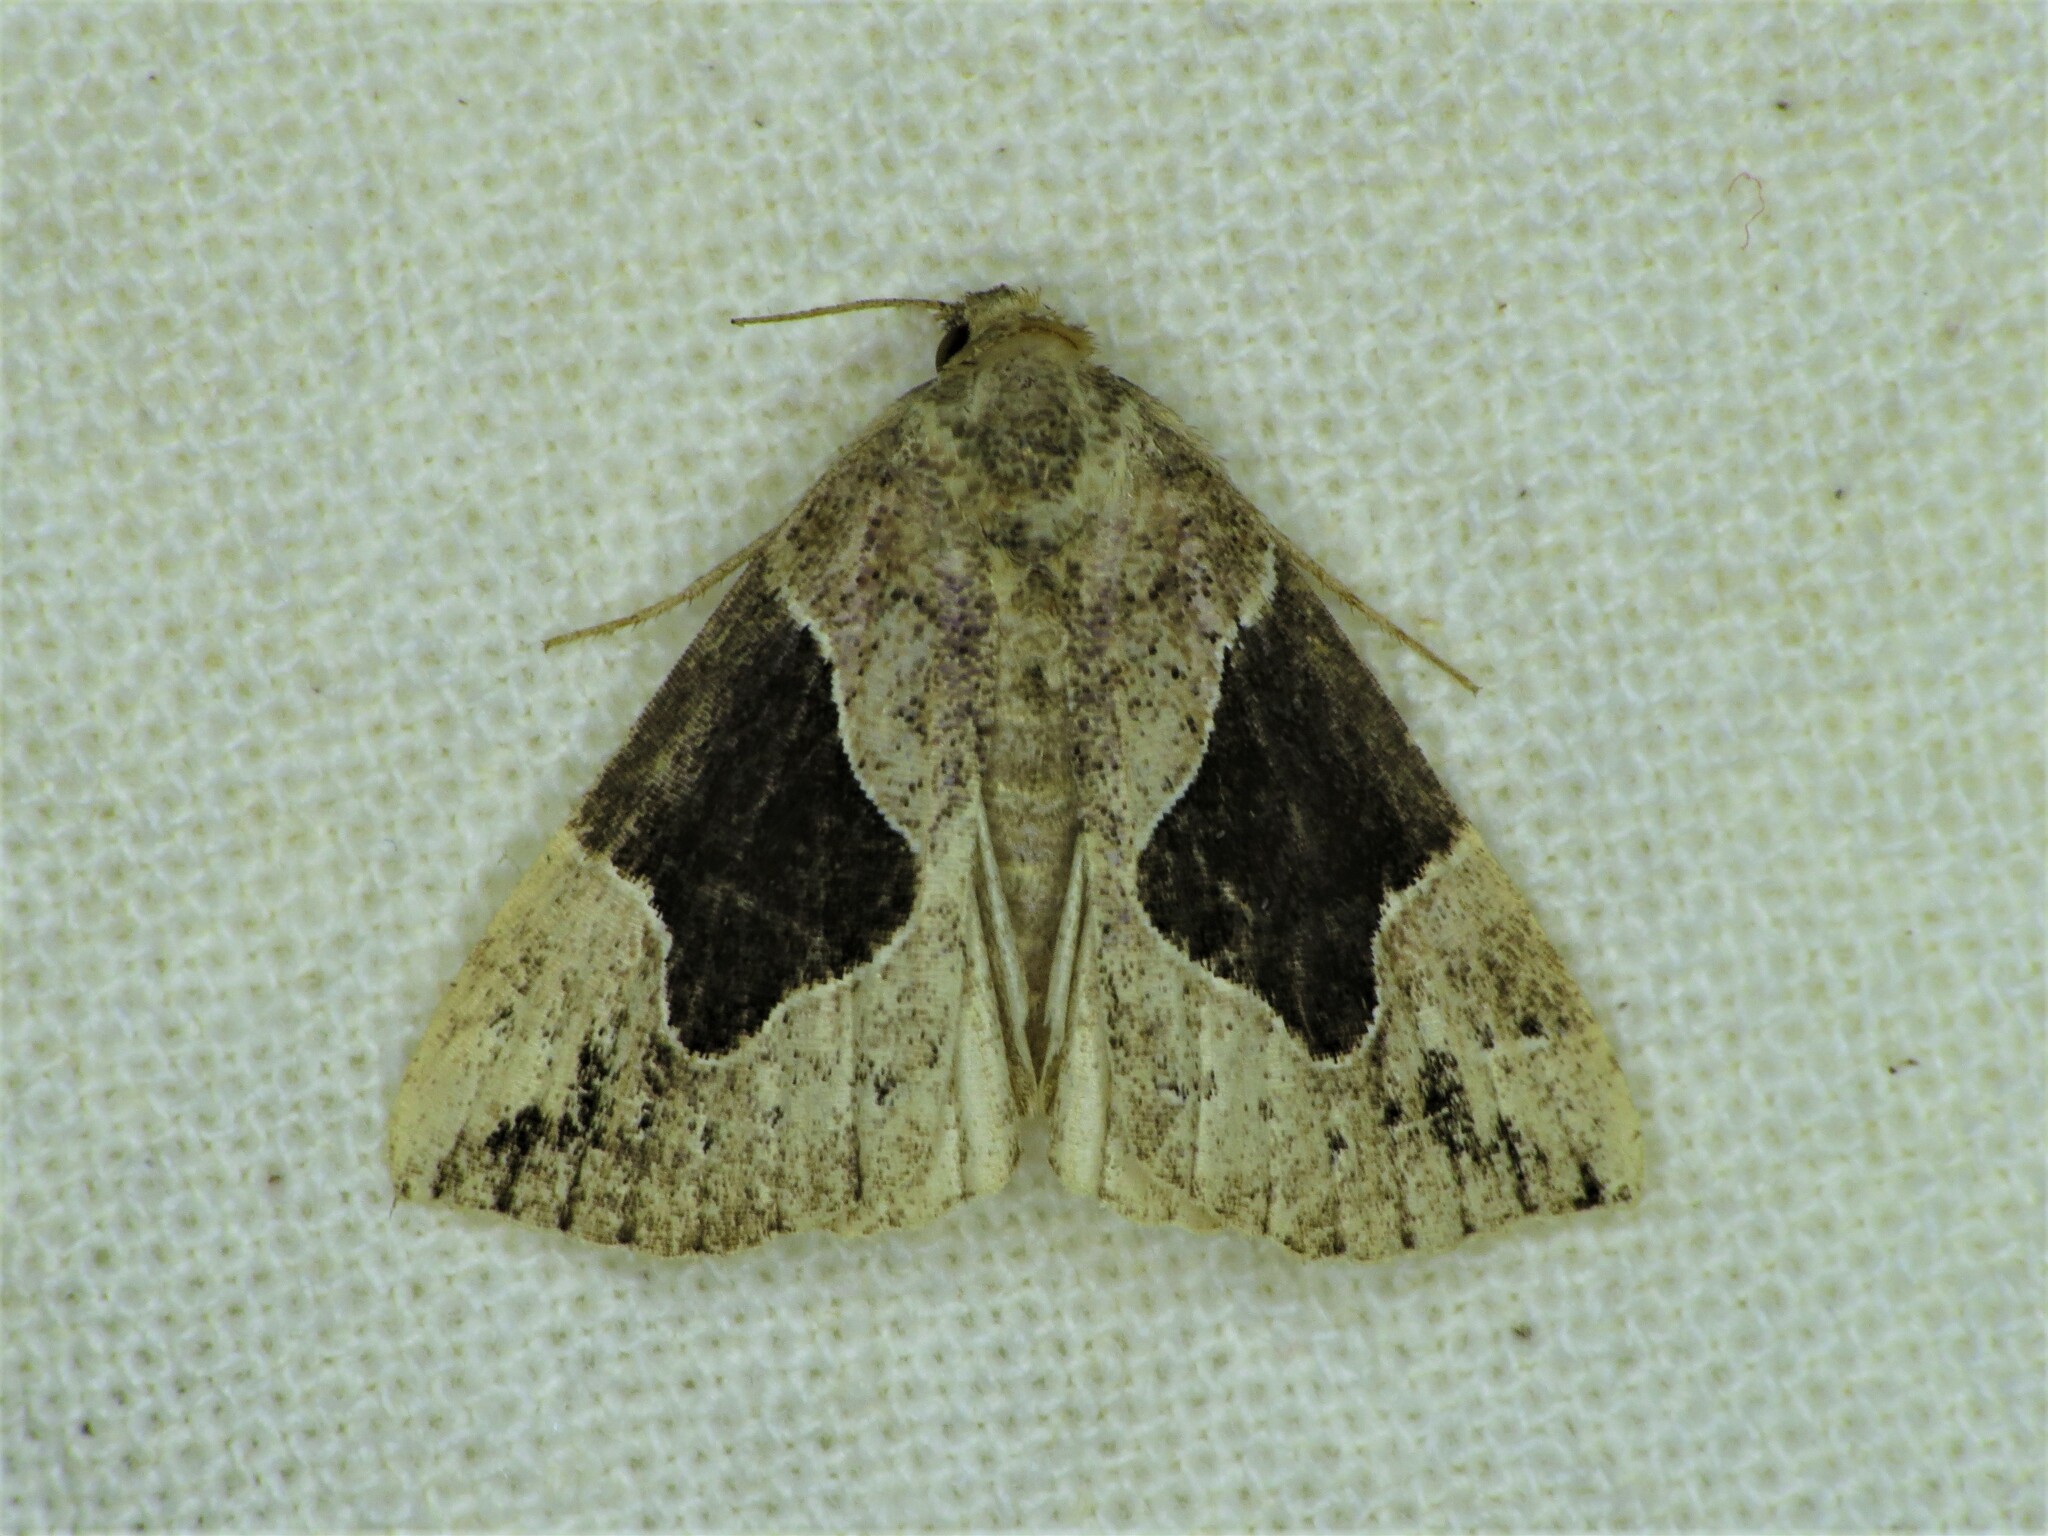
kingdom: Animalia
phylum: Arthropoda
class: Insecta
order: Lepidoptera
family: Erebidae
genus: Hypena
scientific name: Hypena manalis
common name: Flowing-line bomolocha moth
